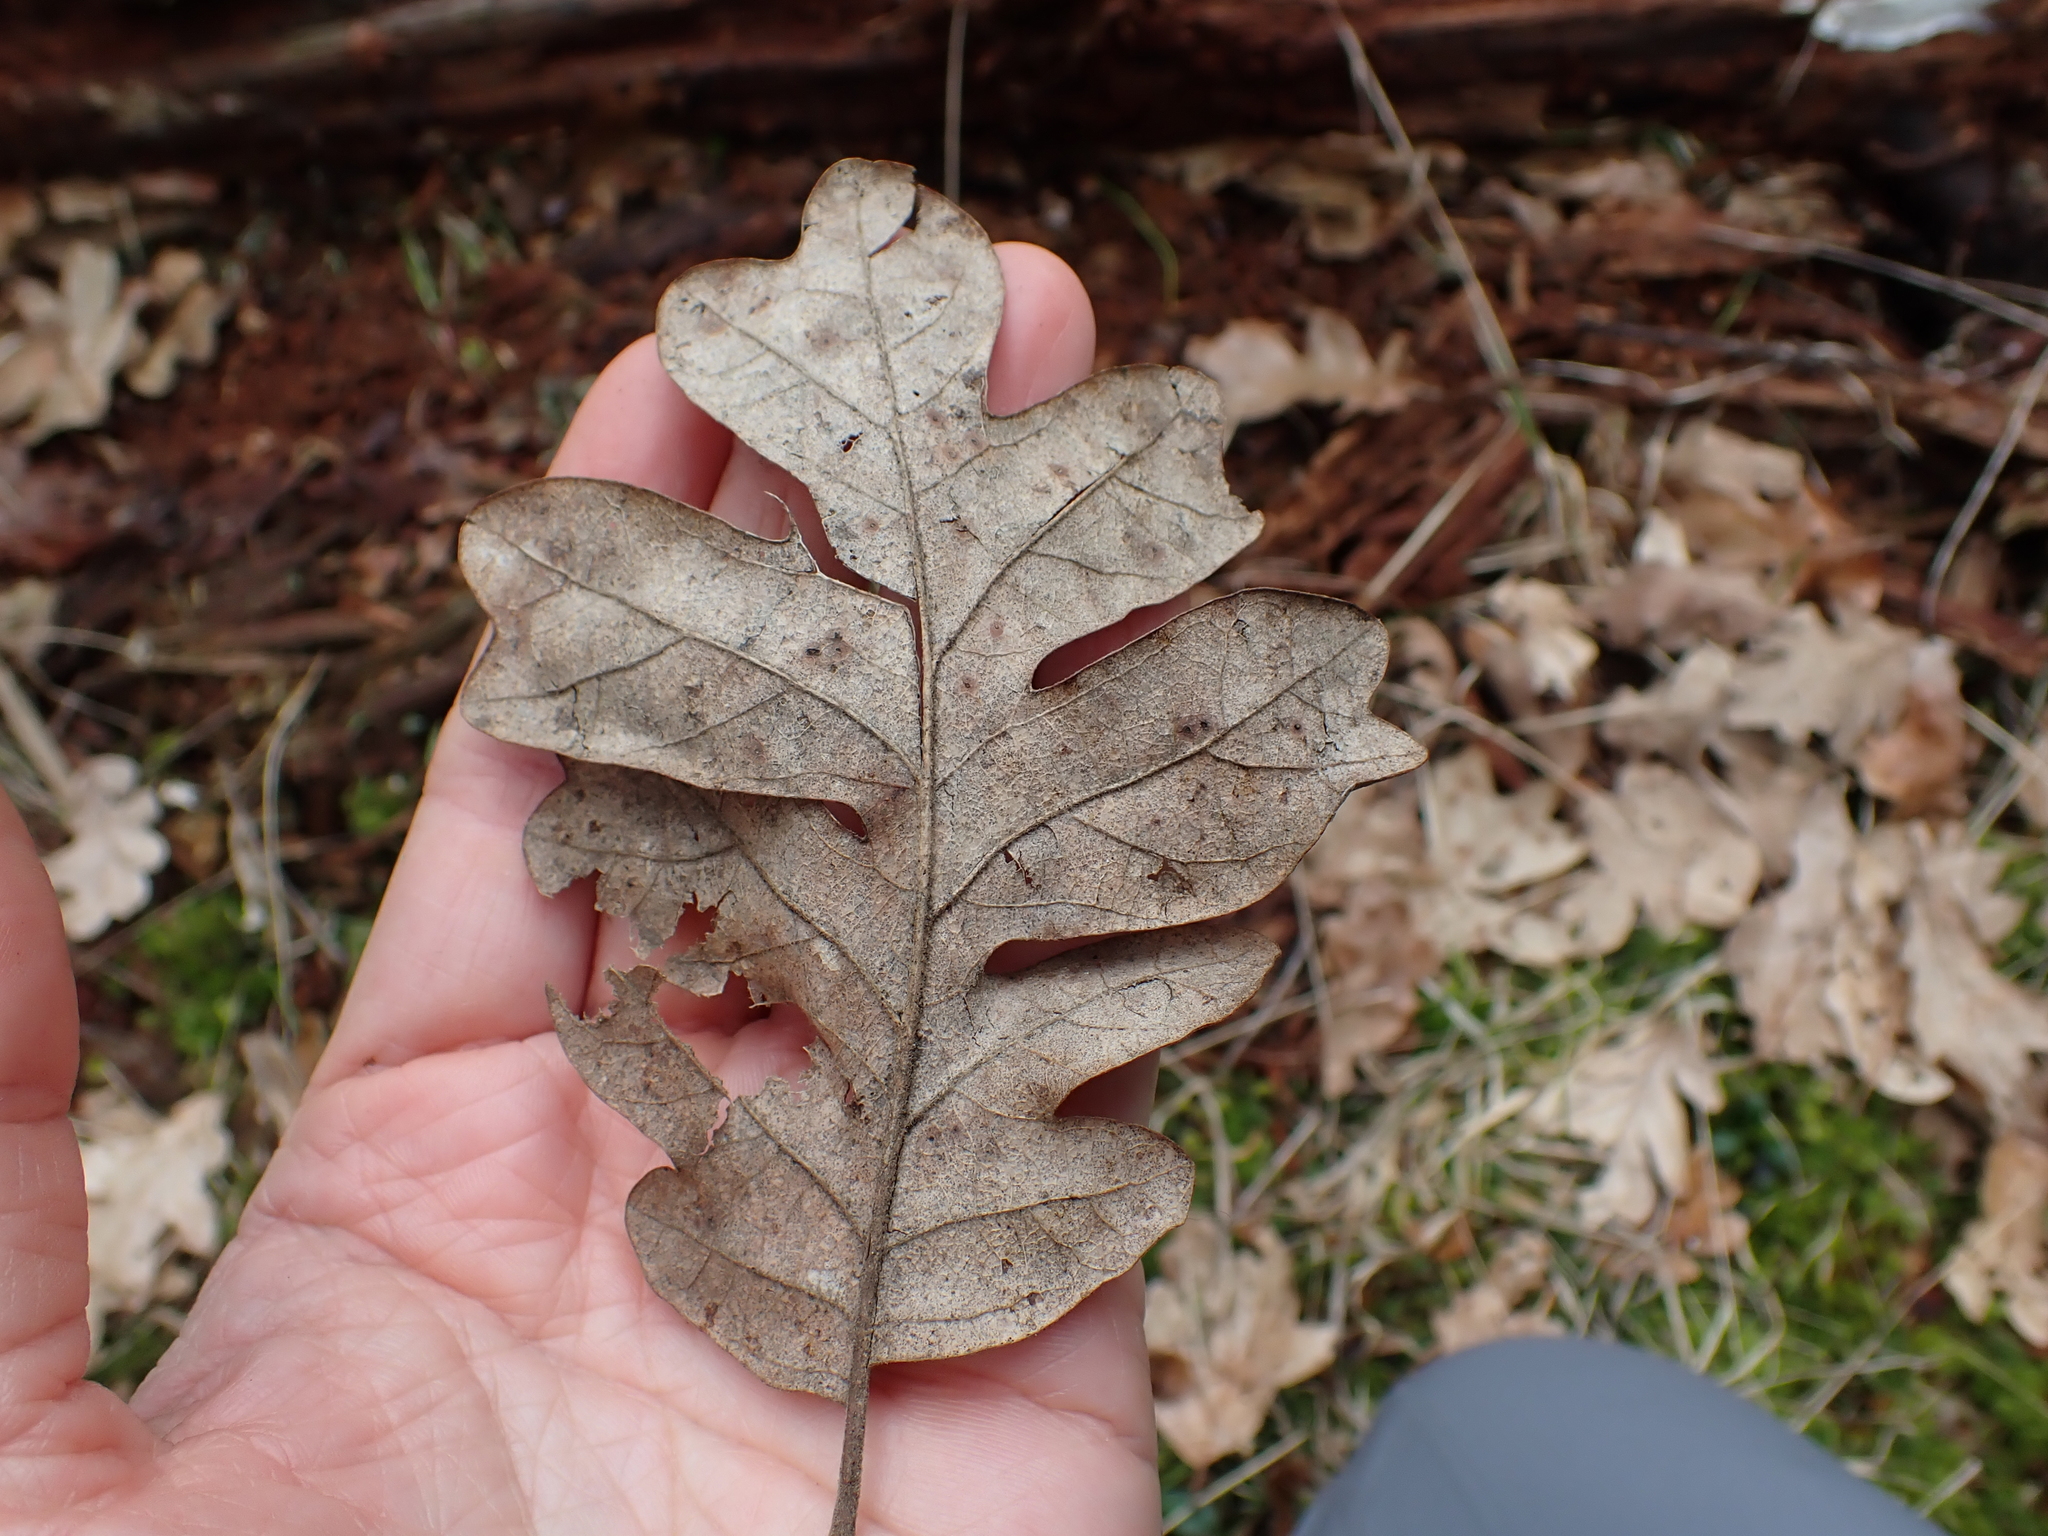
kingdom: Plantae
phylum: Tracheophyta
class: Magnoliopsida
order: Fagales
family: Fagaceae
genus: Quercus
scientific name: Quercus garryana
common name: Garry oak
